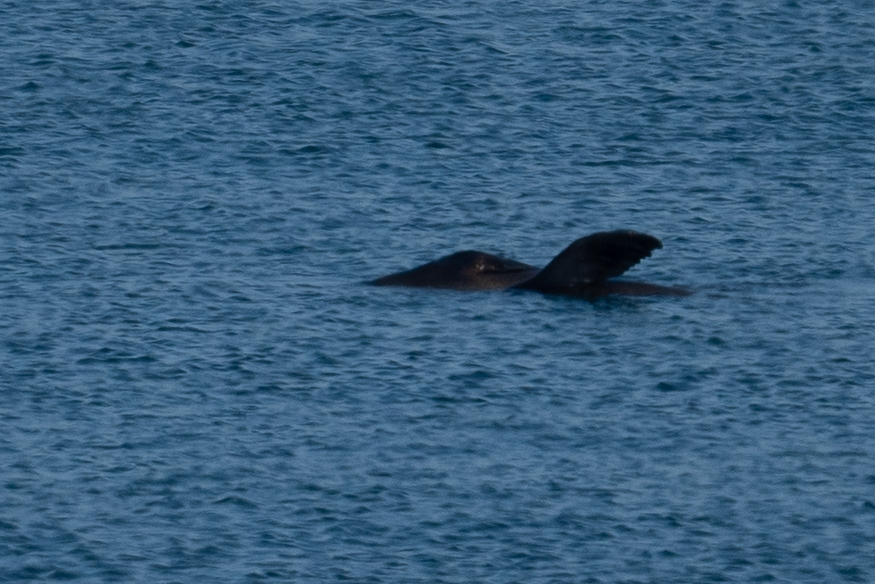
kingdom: Animalia
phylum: Chordata
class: Mammalia
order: Carnivora
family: Otariidae
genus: Zalophus
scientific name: Zalophus californianus
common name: California sea lion
